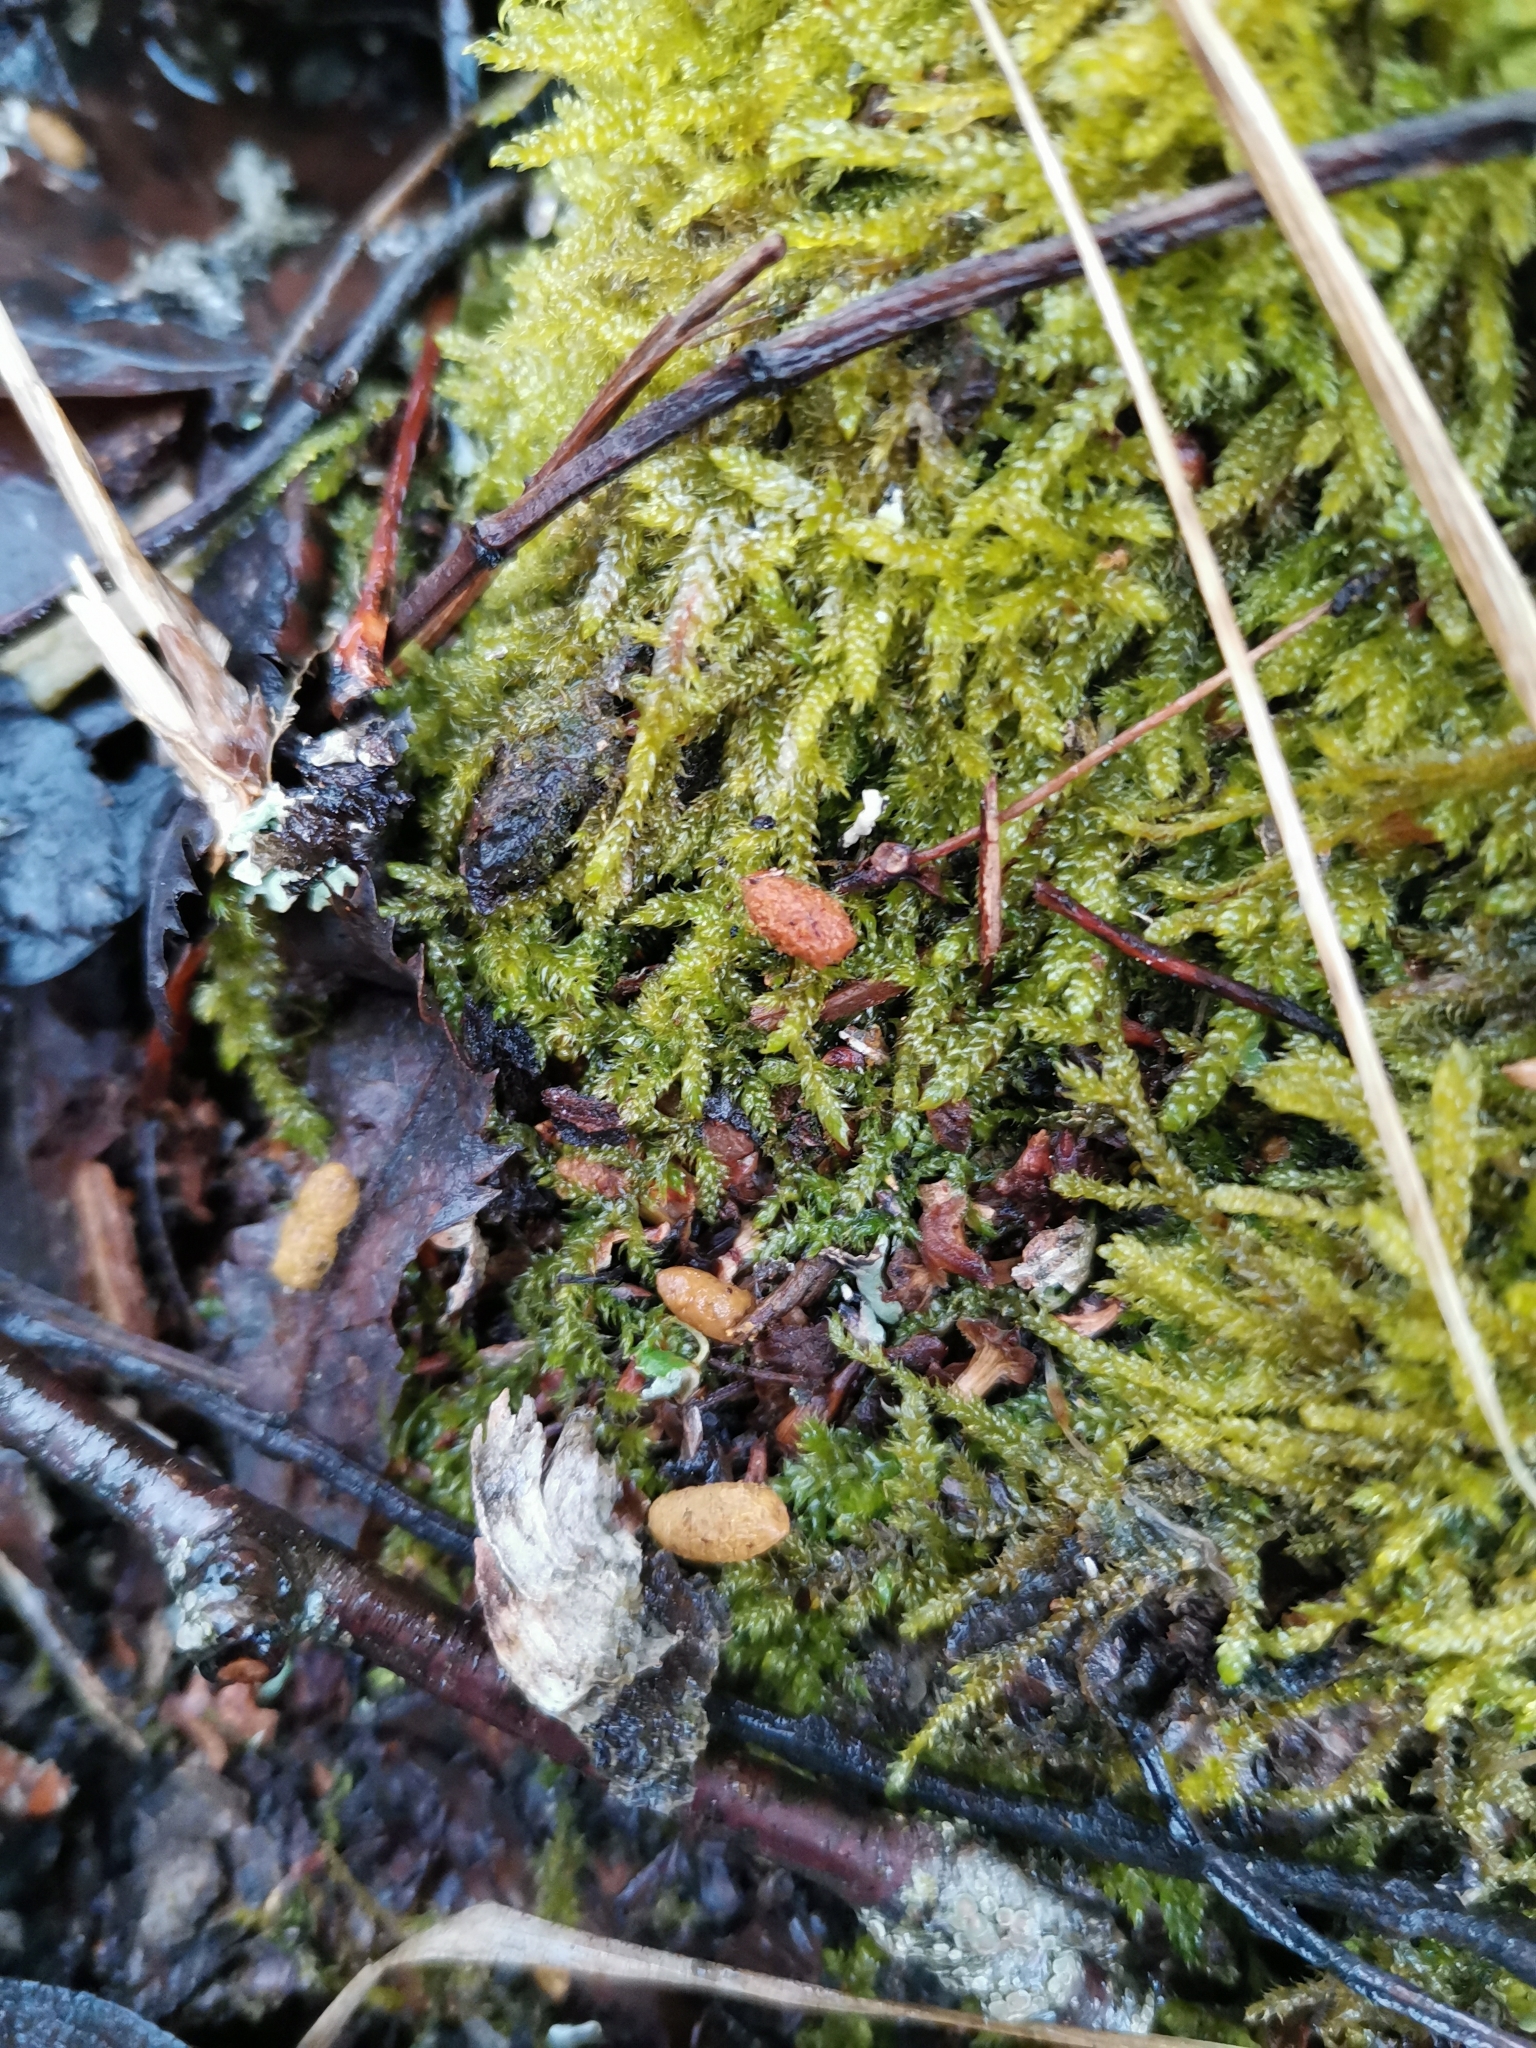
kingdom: Animalia
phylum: Chordata
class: Mammalia
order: Rodentia
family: Sciuridae
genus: Pteromys
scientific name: Pteromys volans
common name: Siberian flying squirrel
